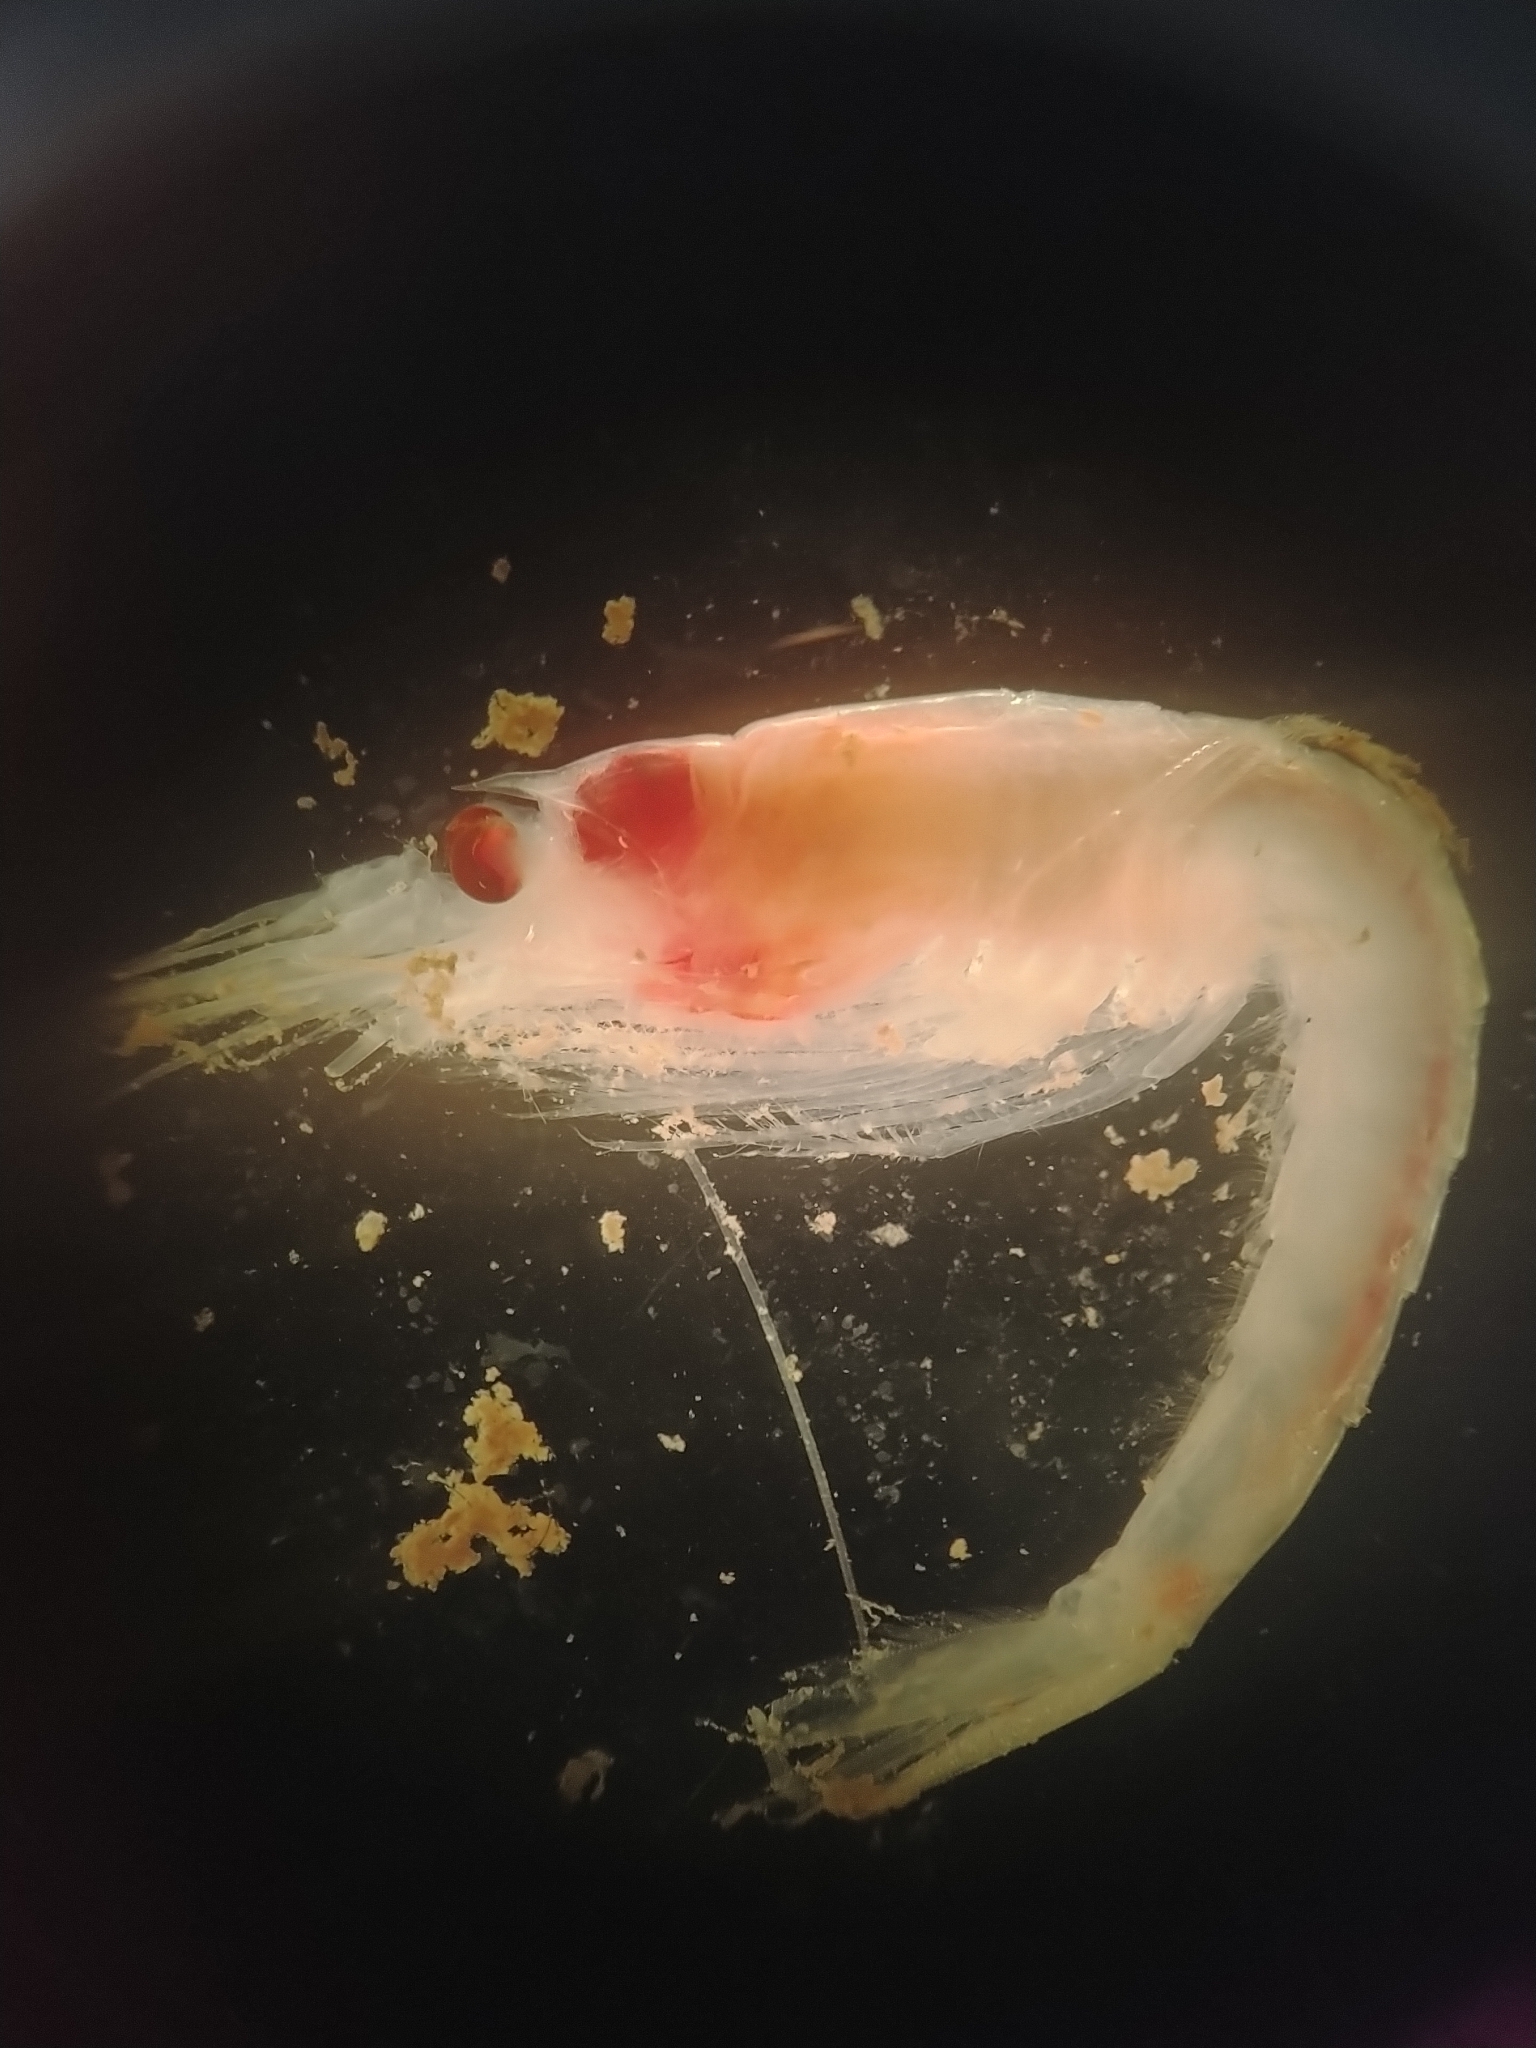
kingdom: Animalia
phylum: Arthropoda
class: Malacostraca
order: Mysida
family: Mysidae
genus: Boreomysis
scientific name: Boreomysis nobilis
